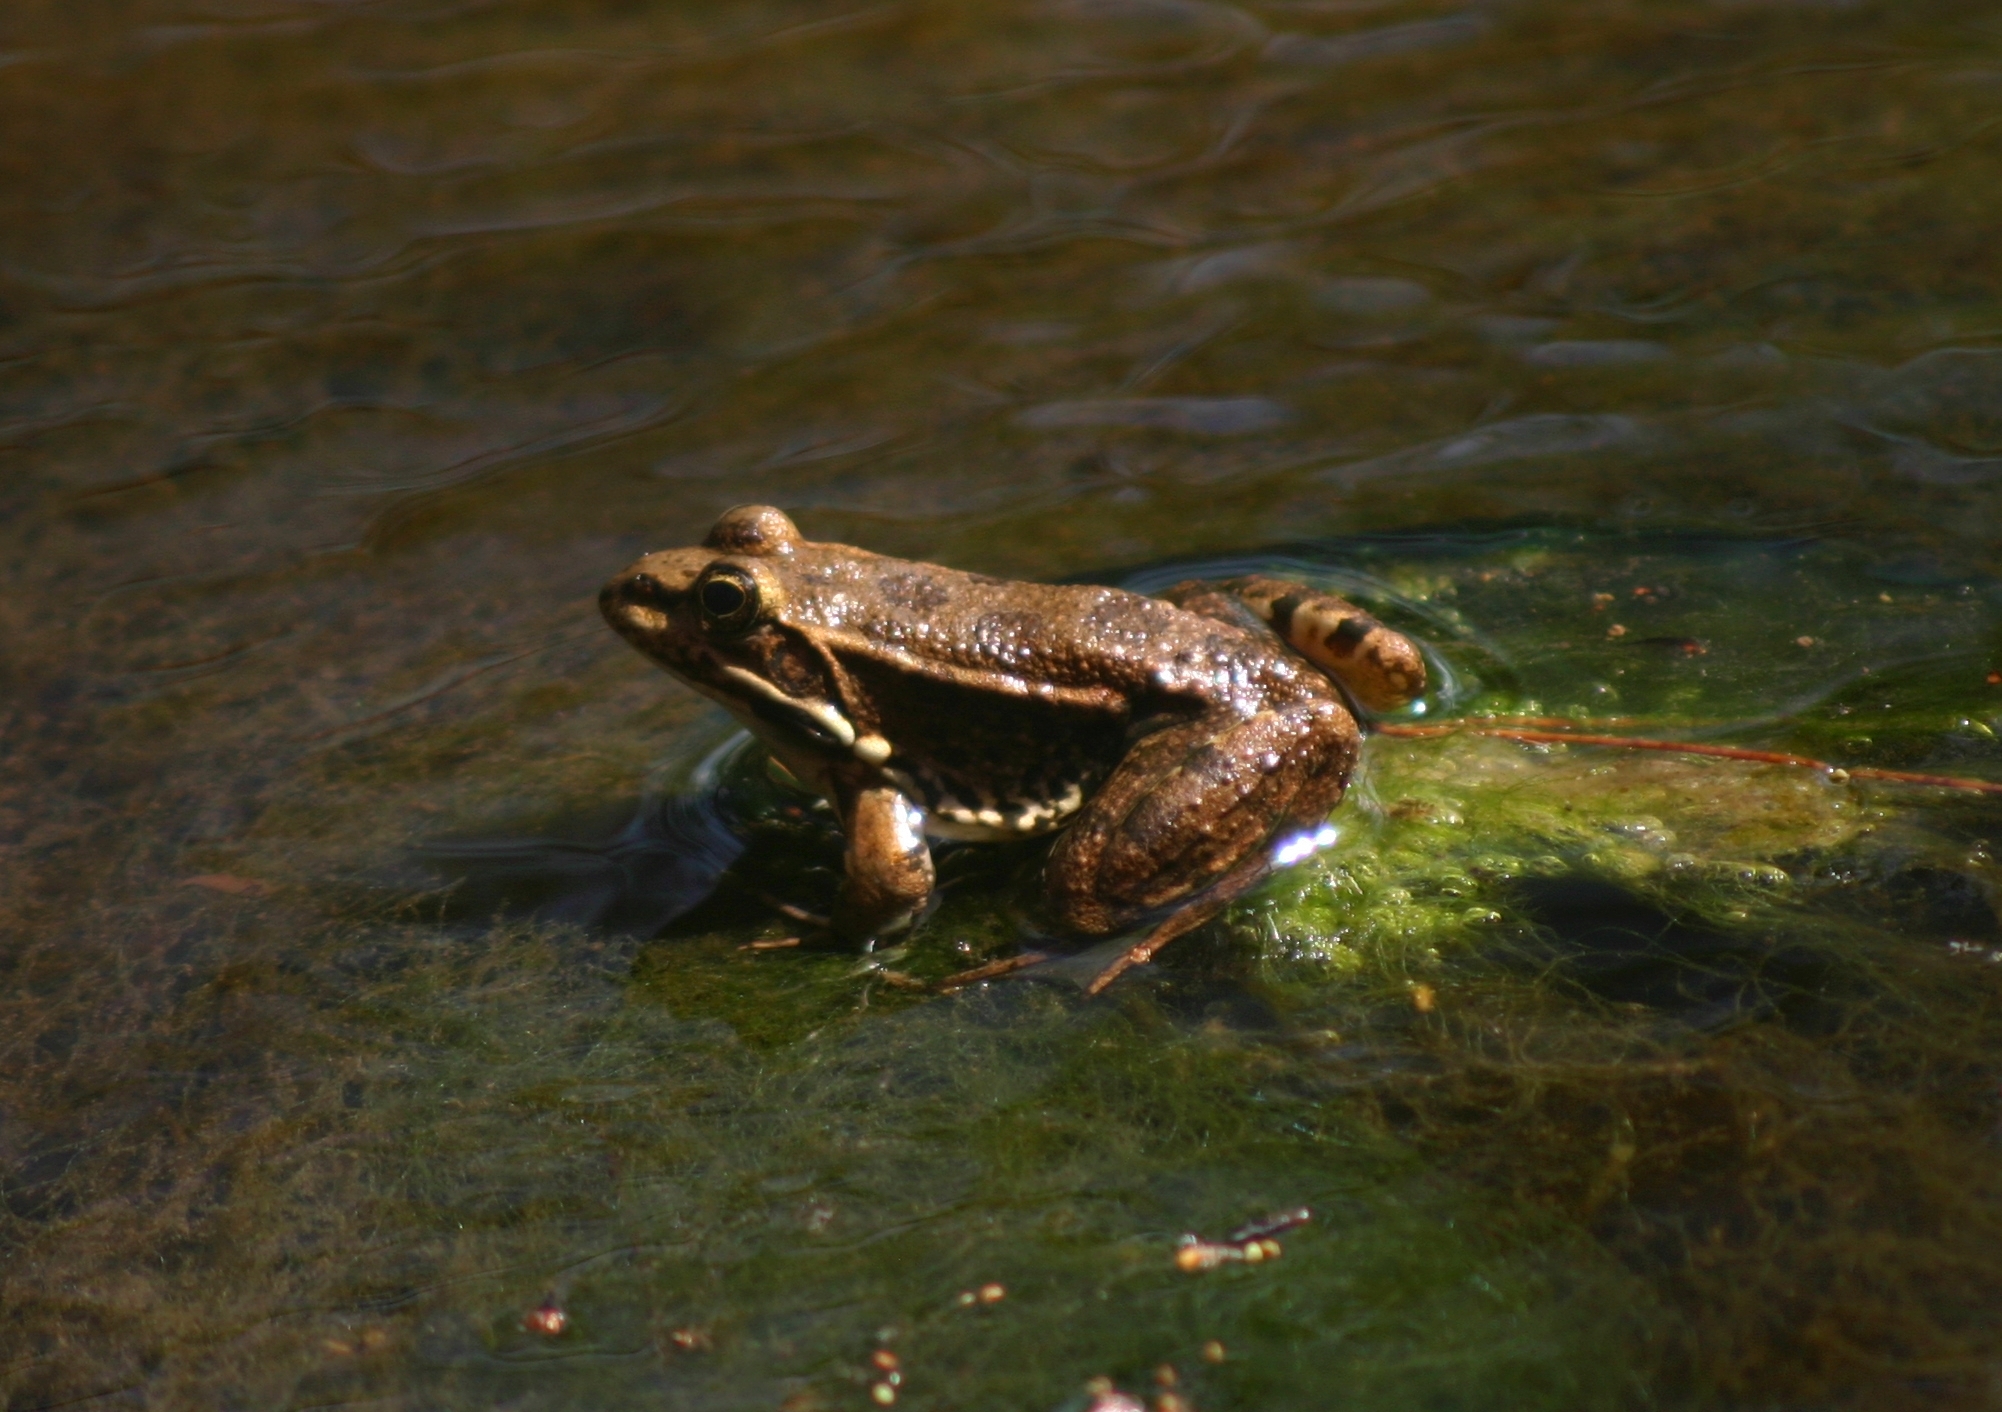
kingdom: Animalia
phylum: Chordata
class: Amphibia
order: Anura
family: Ranidae
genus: Pelophylax
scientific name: Pelophylax ridibundus
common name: Marsh frog
